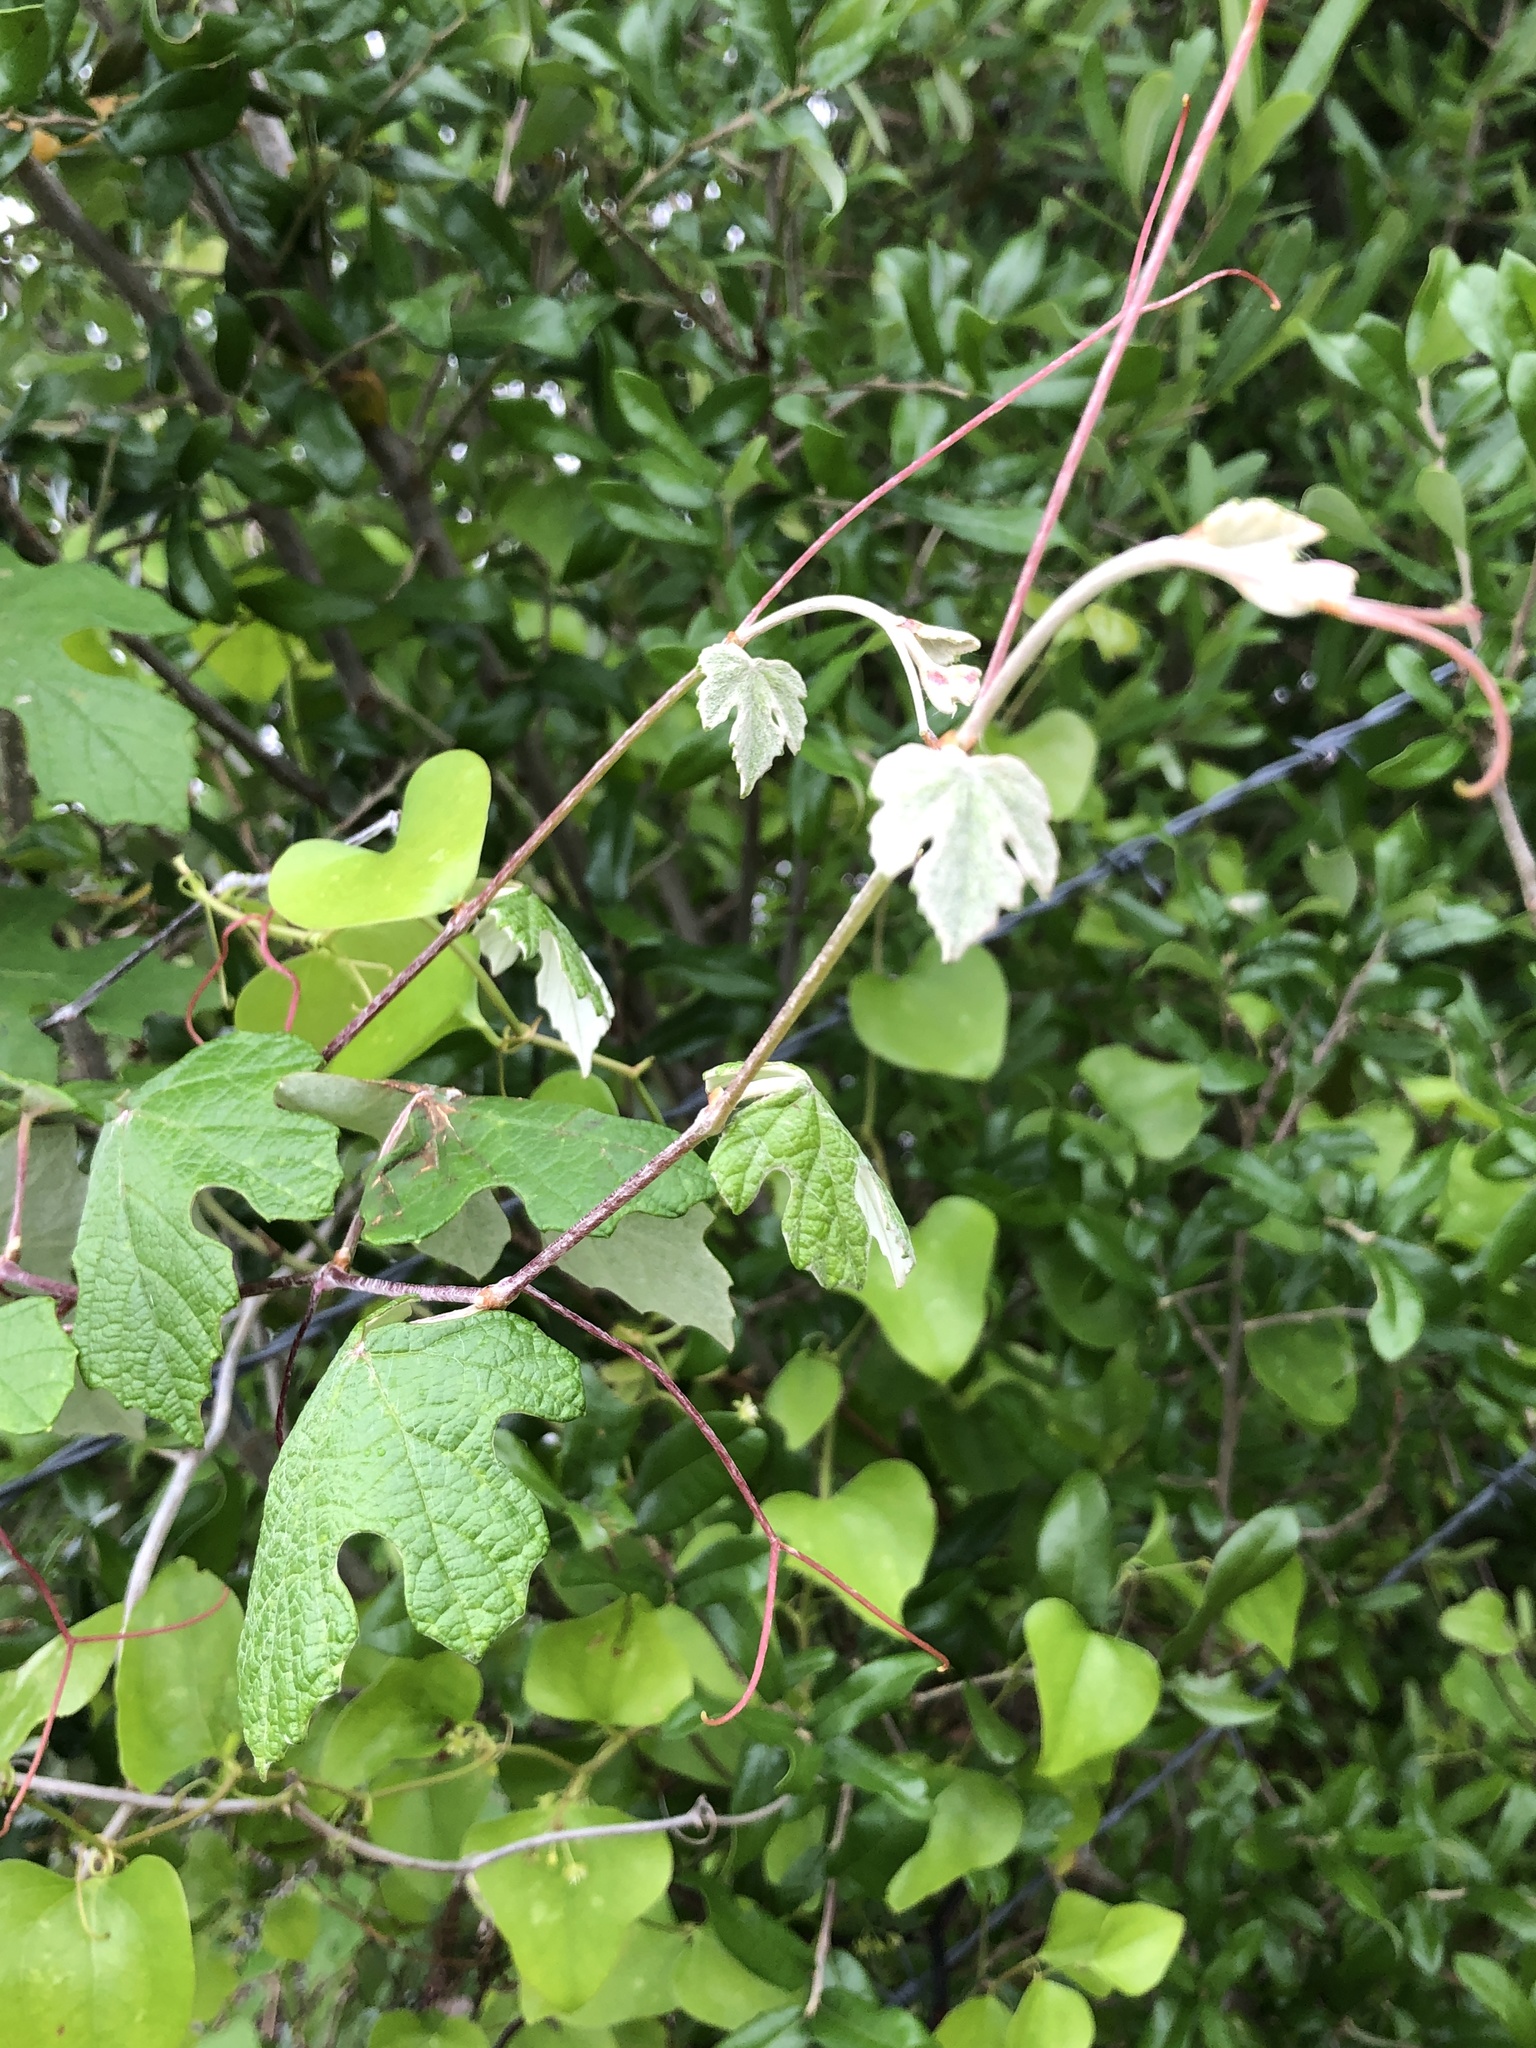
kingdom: Plantae
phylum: Tracheophyta
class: Magnoliopsida
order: Vitales
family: Vitaceae
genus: Vitis
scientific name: Vitis mustangensis
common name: Mustang grape
